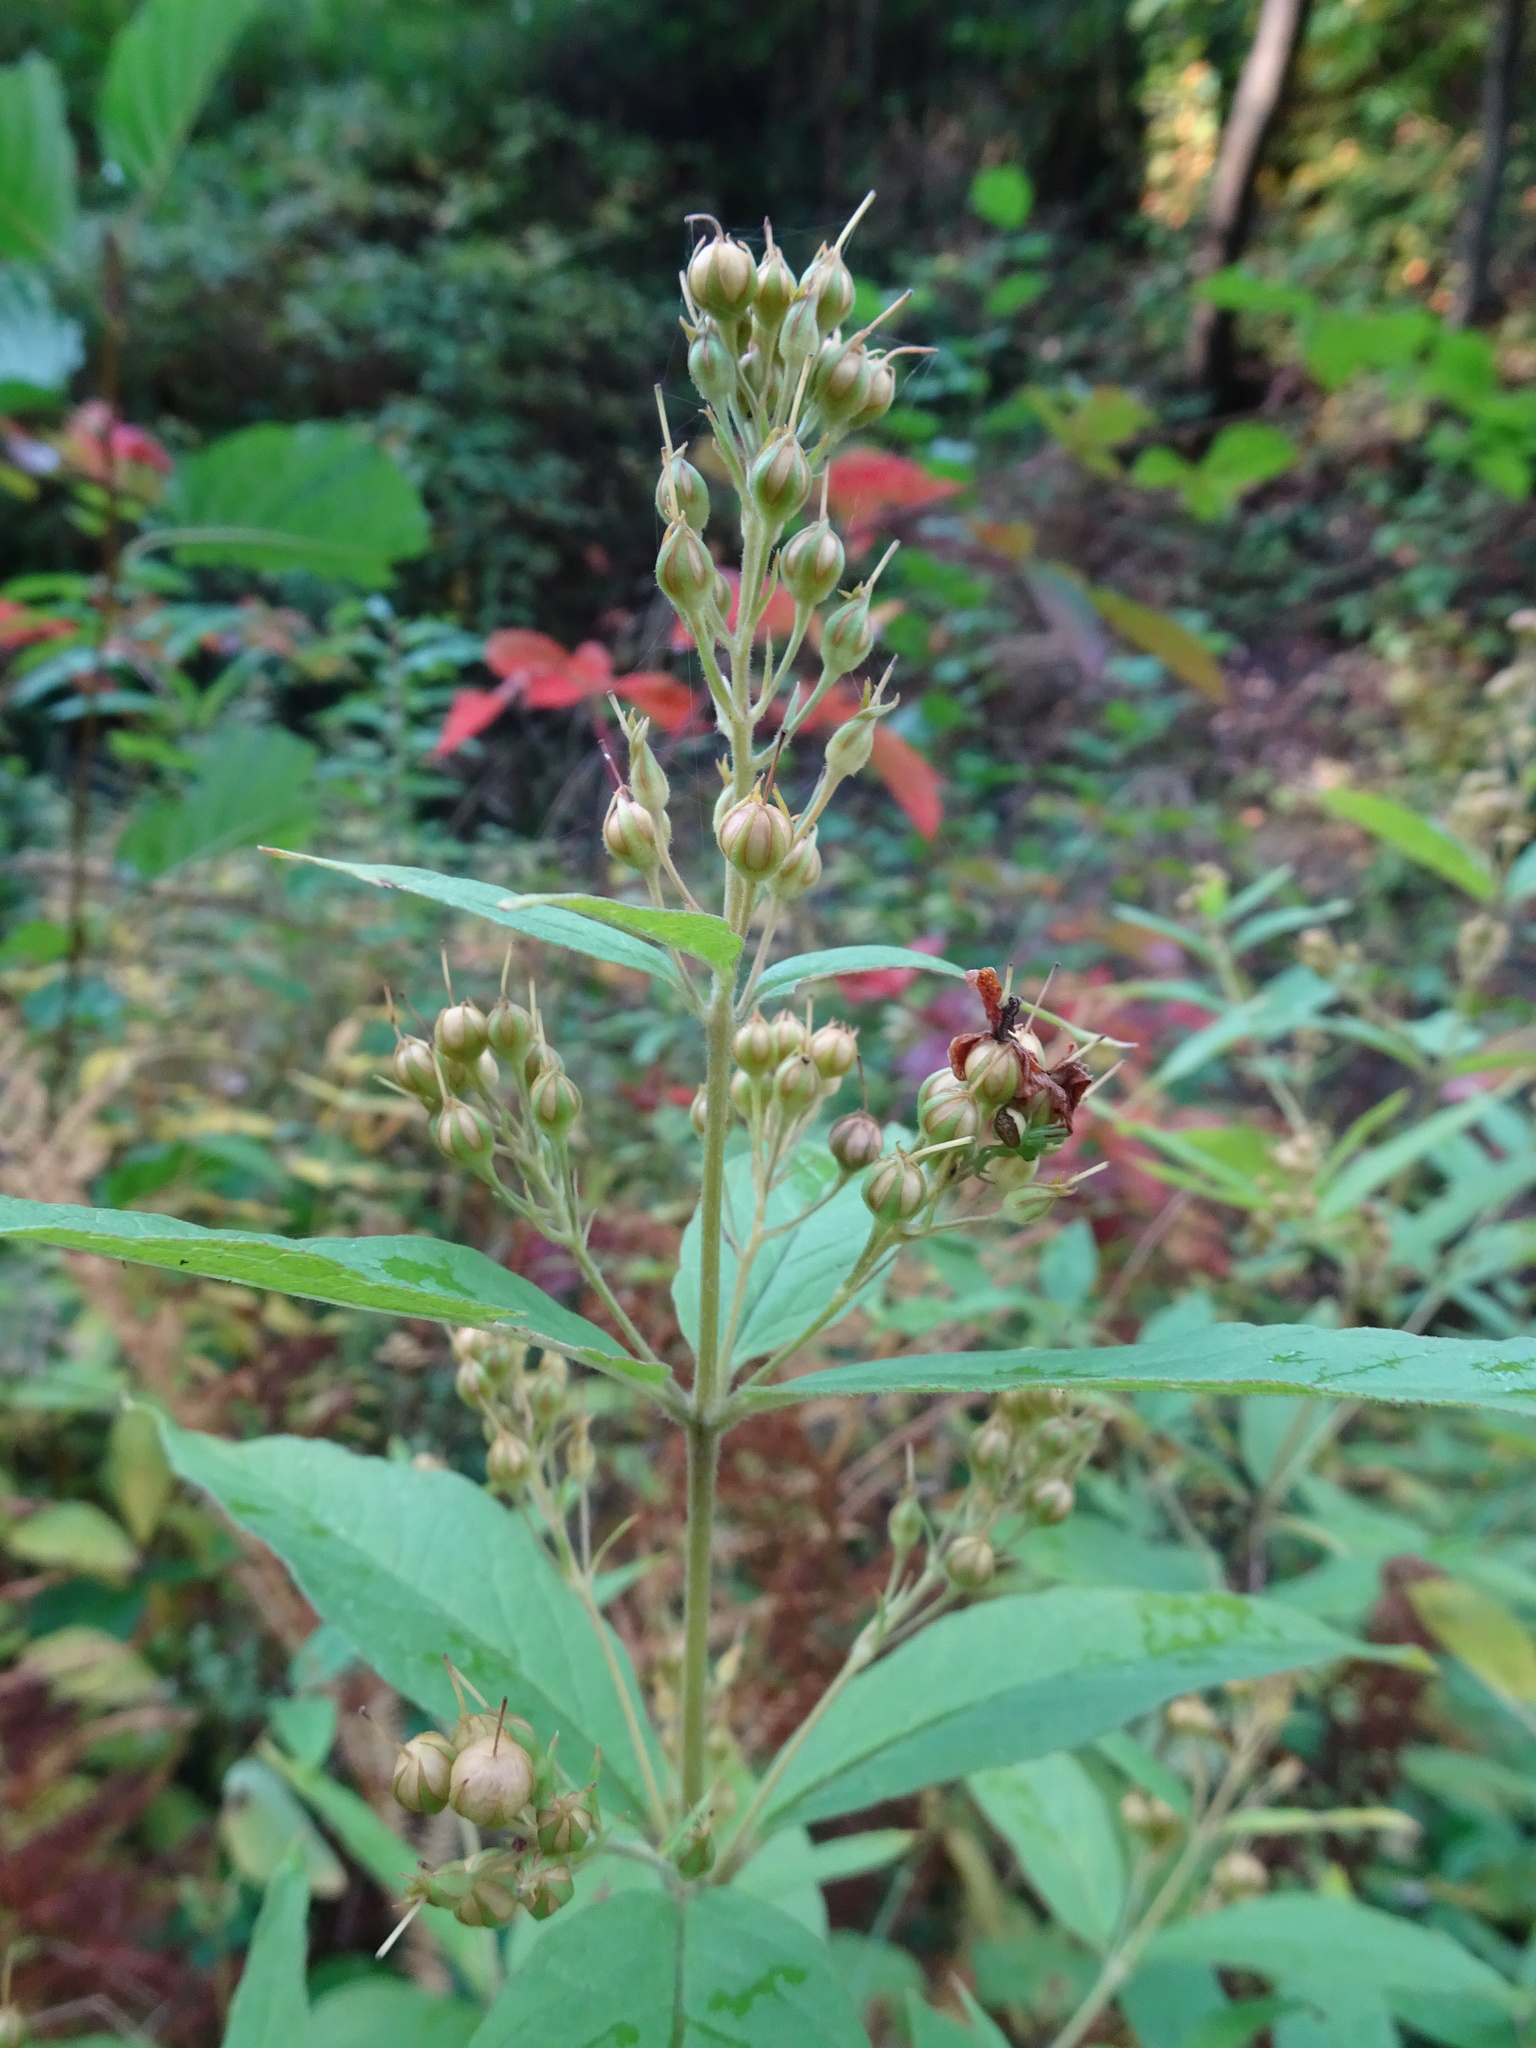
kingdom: Plantae
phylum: Tracheophyta
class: Magnoliopsida
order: Ericales
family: Primulaceae
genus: Lysimachia
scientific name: Lysimachia vulgaris
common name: Yellow loosestrife
